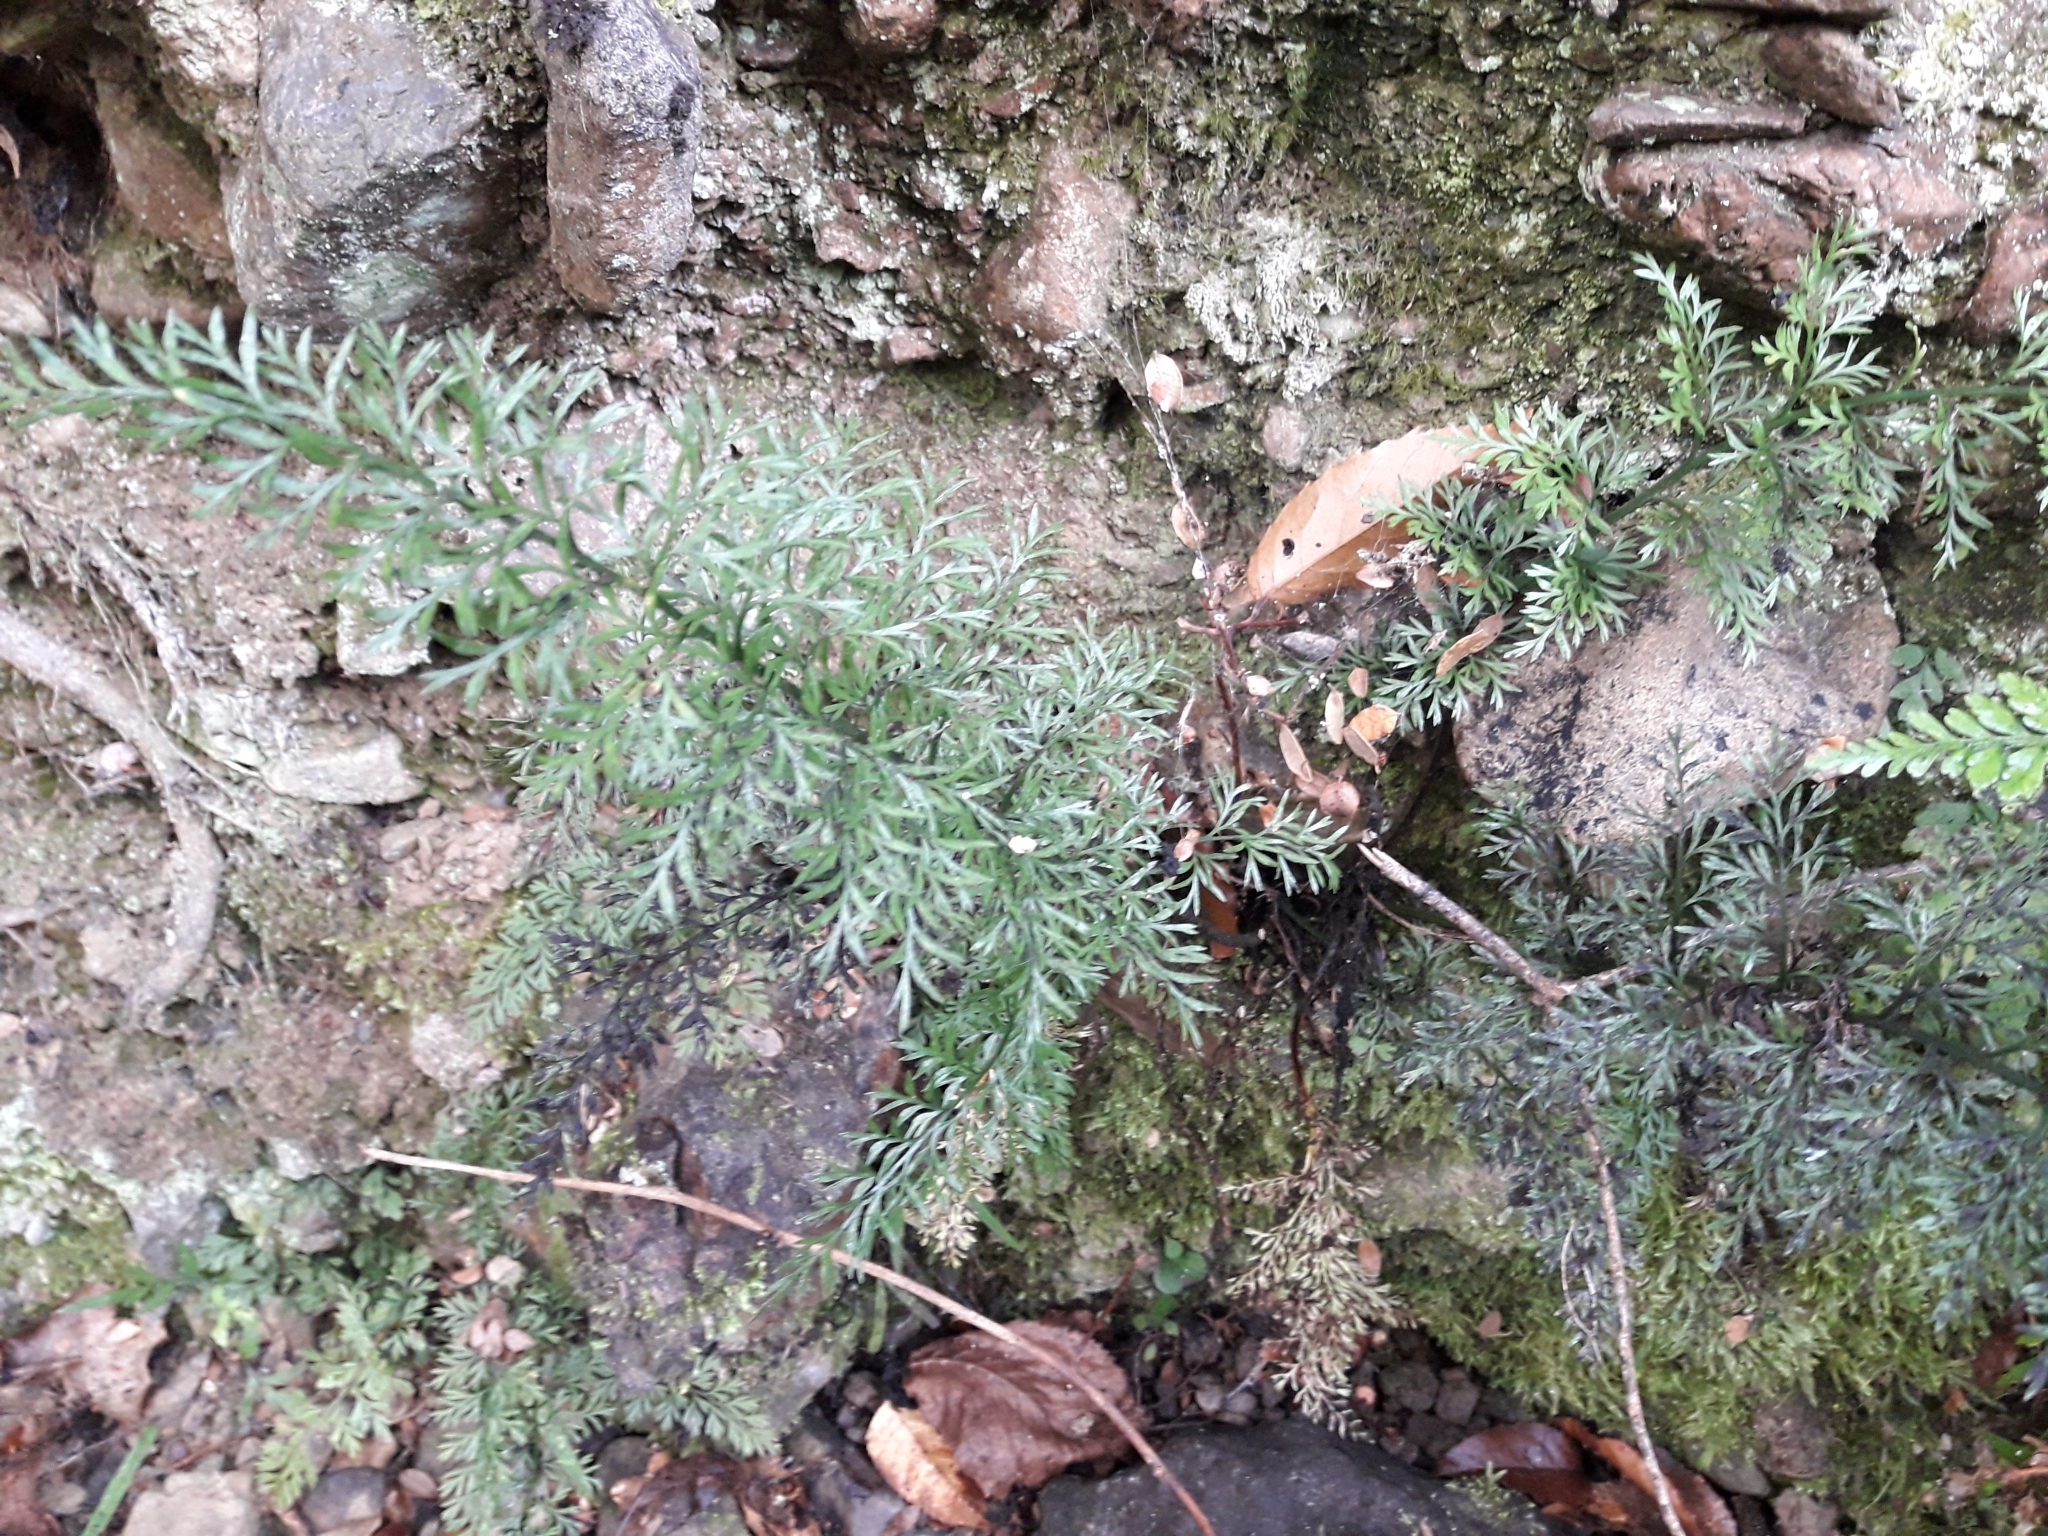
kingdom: Plantae
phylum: Tracheophyta
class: Polypodiopsida
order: Polypodiales
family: Aspleniaceae
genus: Asplenium
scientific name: Asplenium richardii
